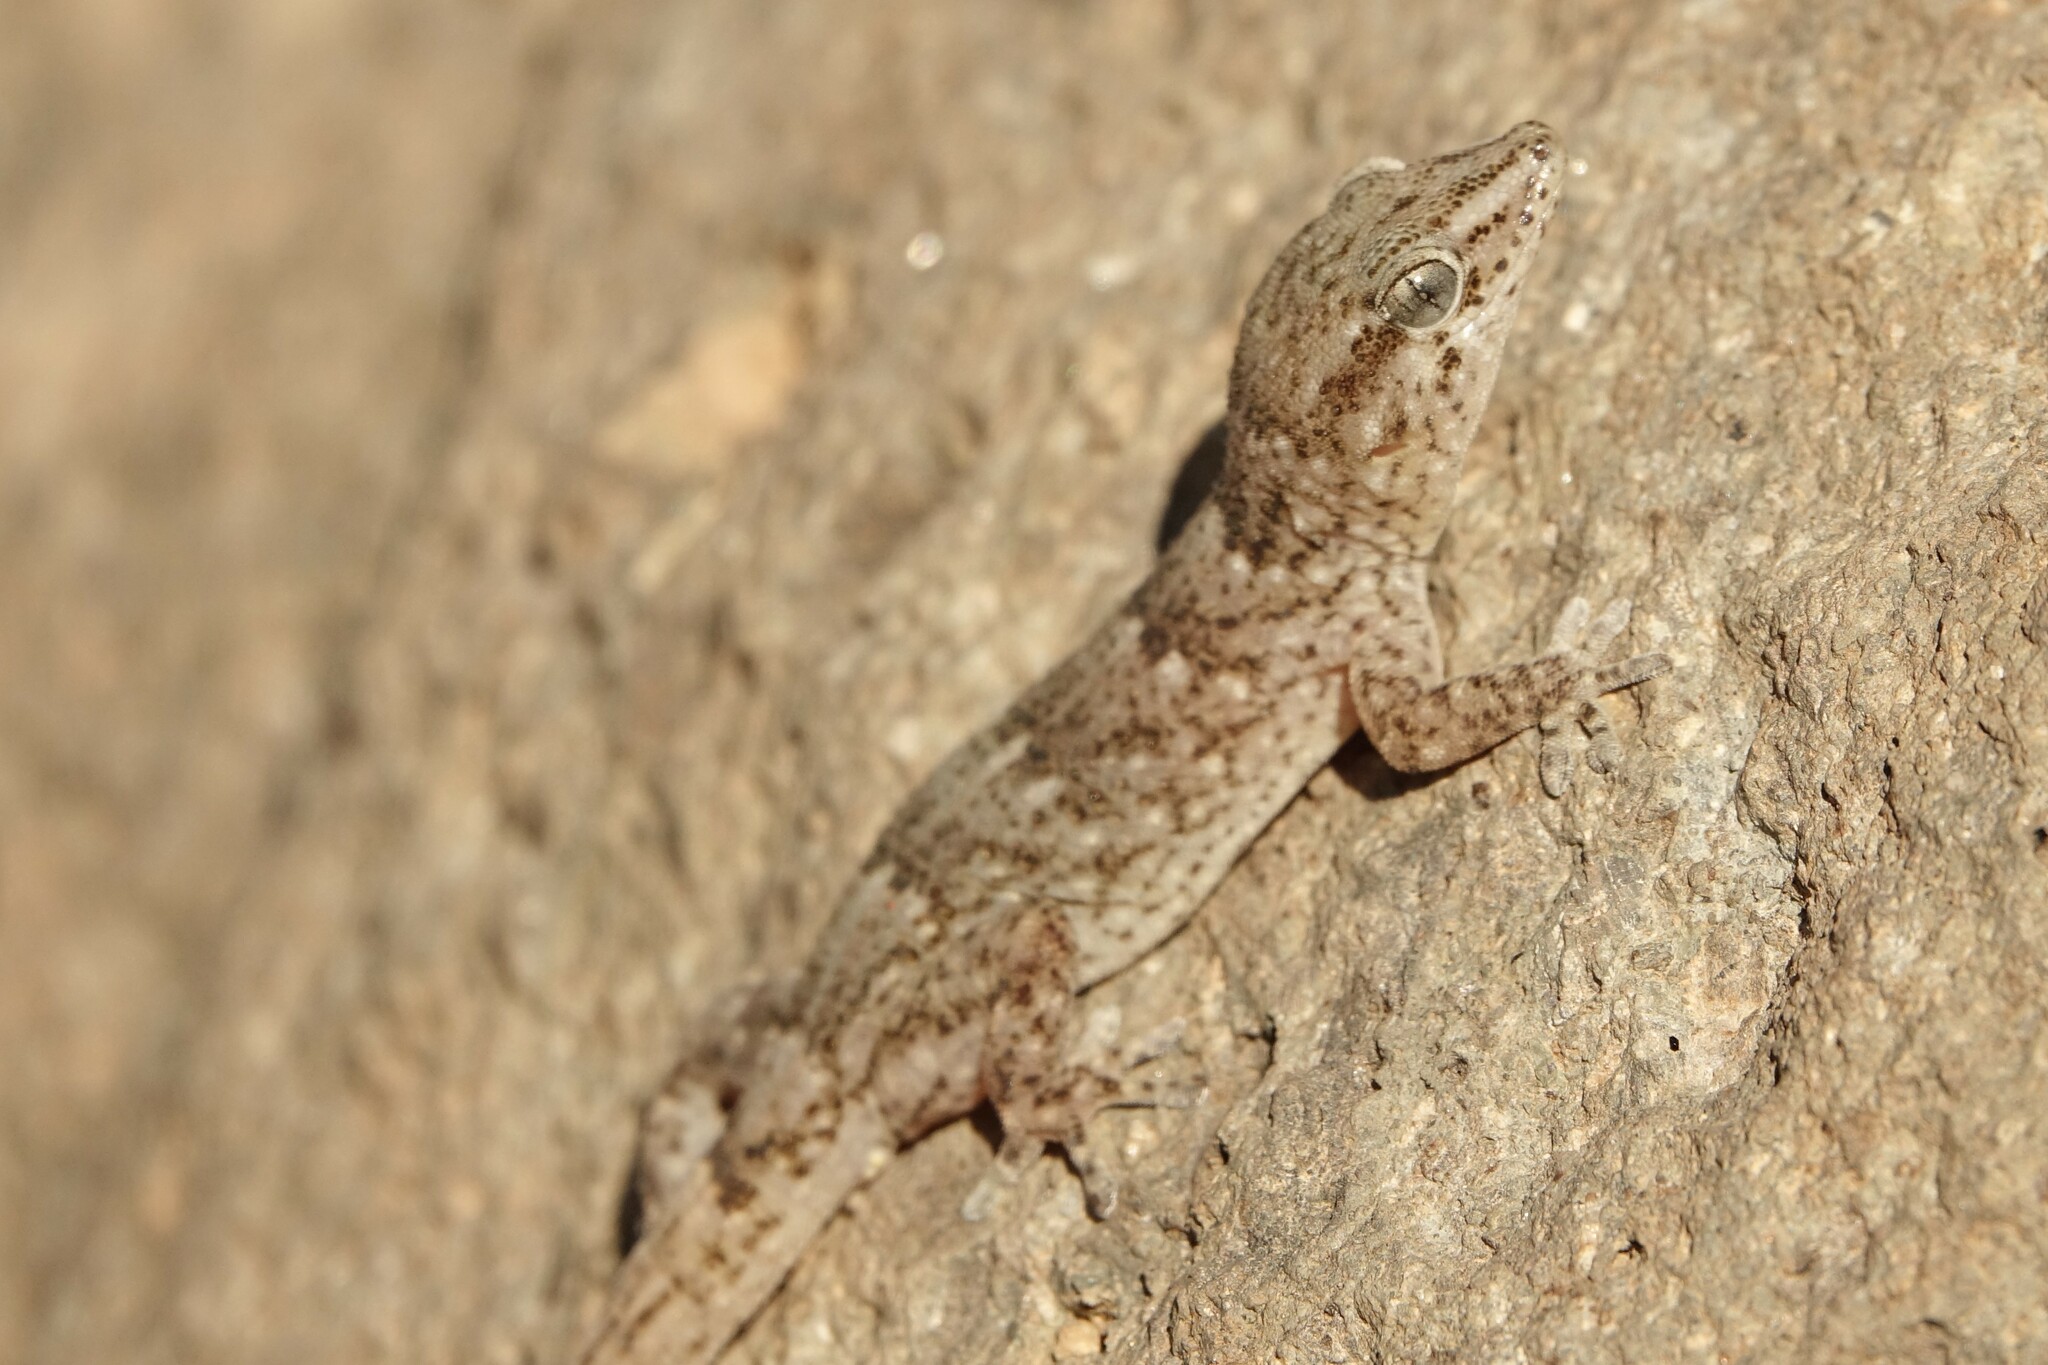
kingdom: Animalia
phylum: Chordata
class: Squamata
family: Phyllodactylidae
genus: Tarentola
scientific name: Tarentola boettgeri
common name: Boettger's wall gecko
